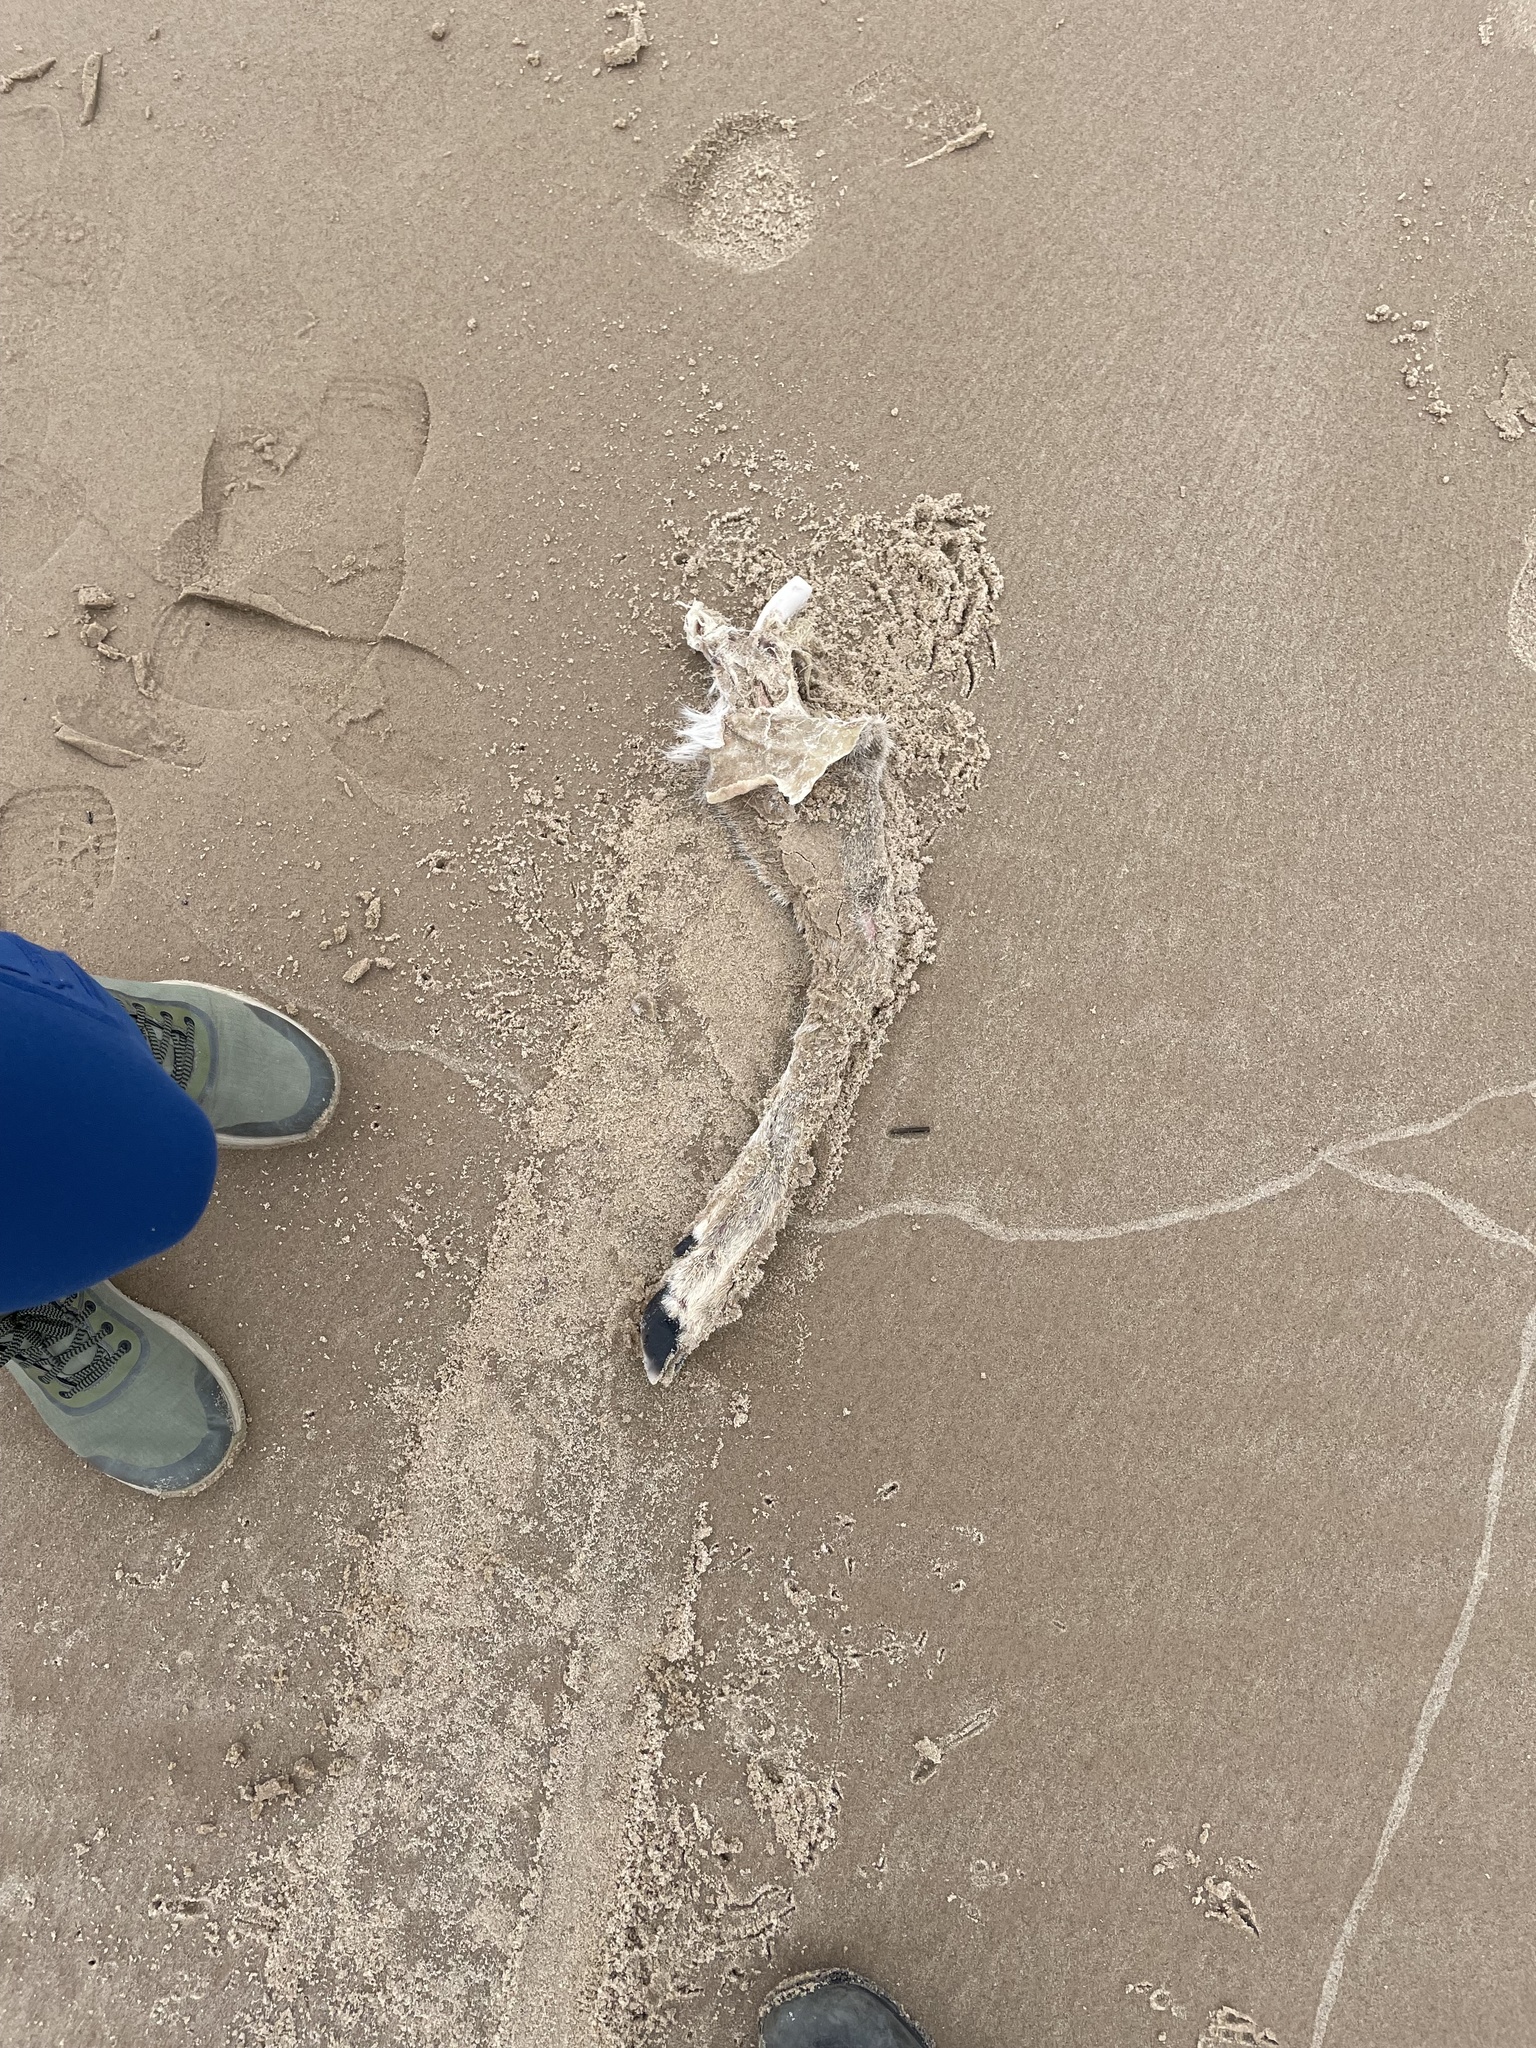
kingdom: Animalia
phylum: Chordata
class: Mammalia
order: Artiodactyla
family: Cervidae
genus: Odocoileus
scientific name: Odocoileus virginianus
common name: White-tailed deer
